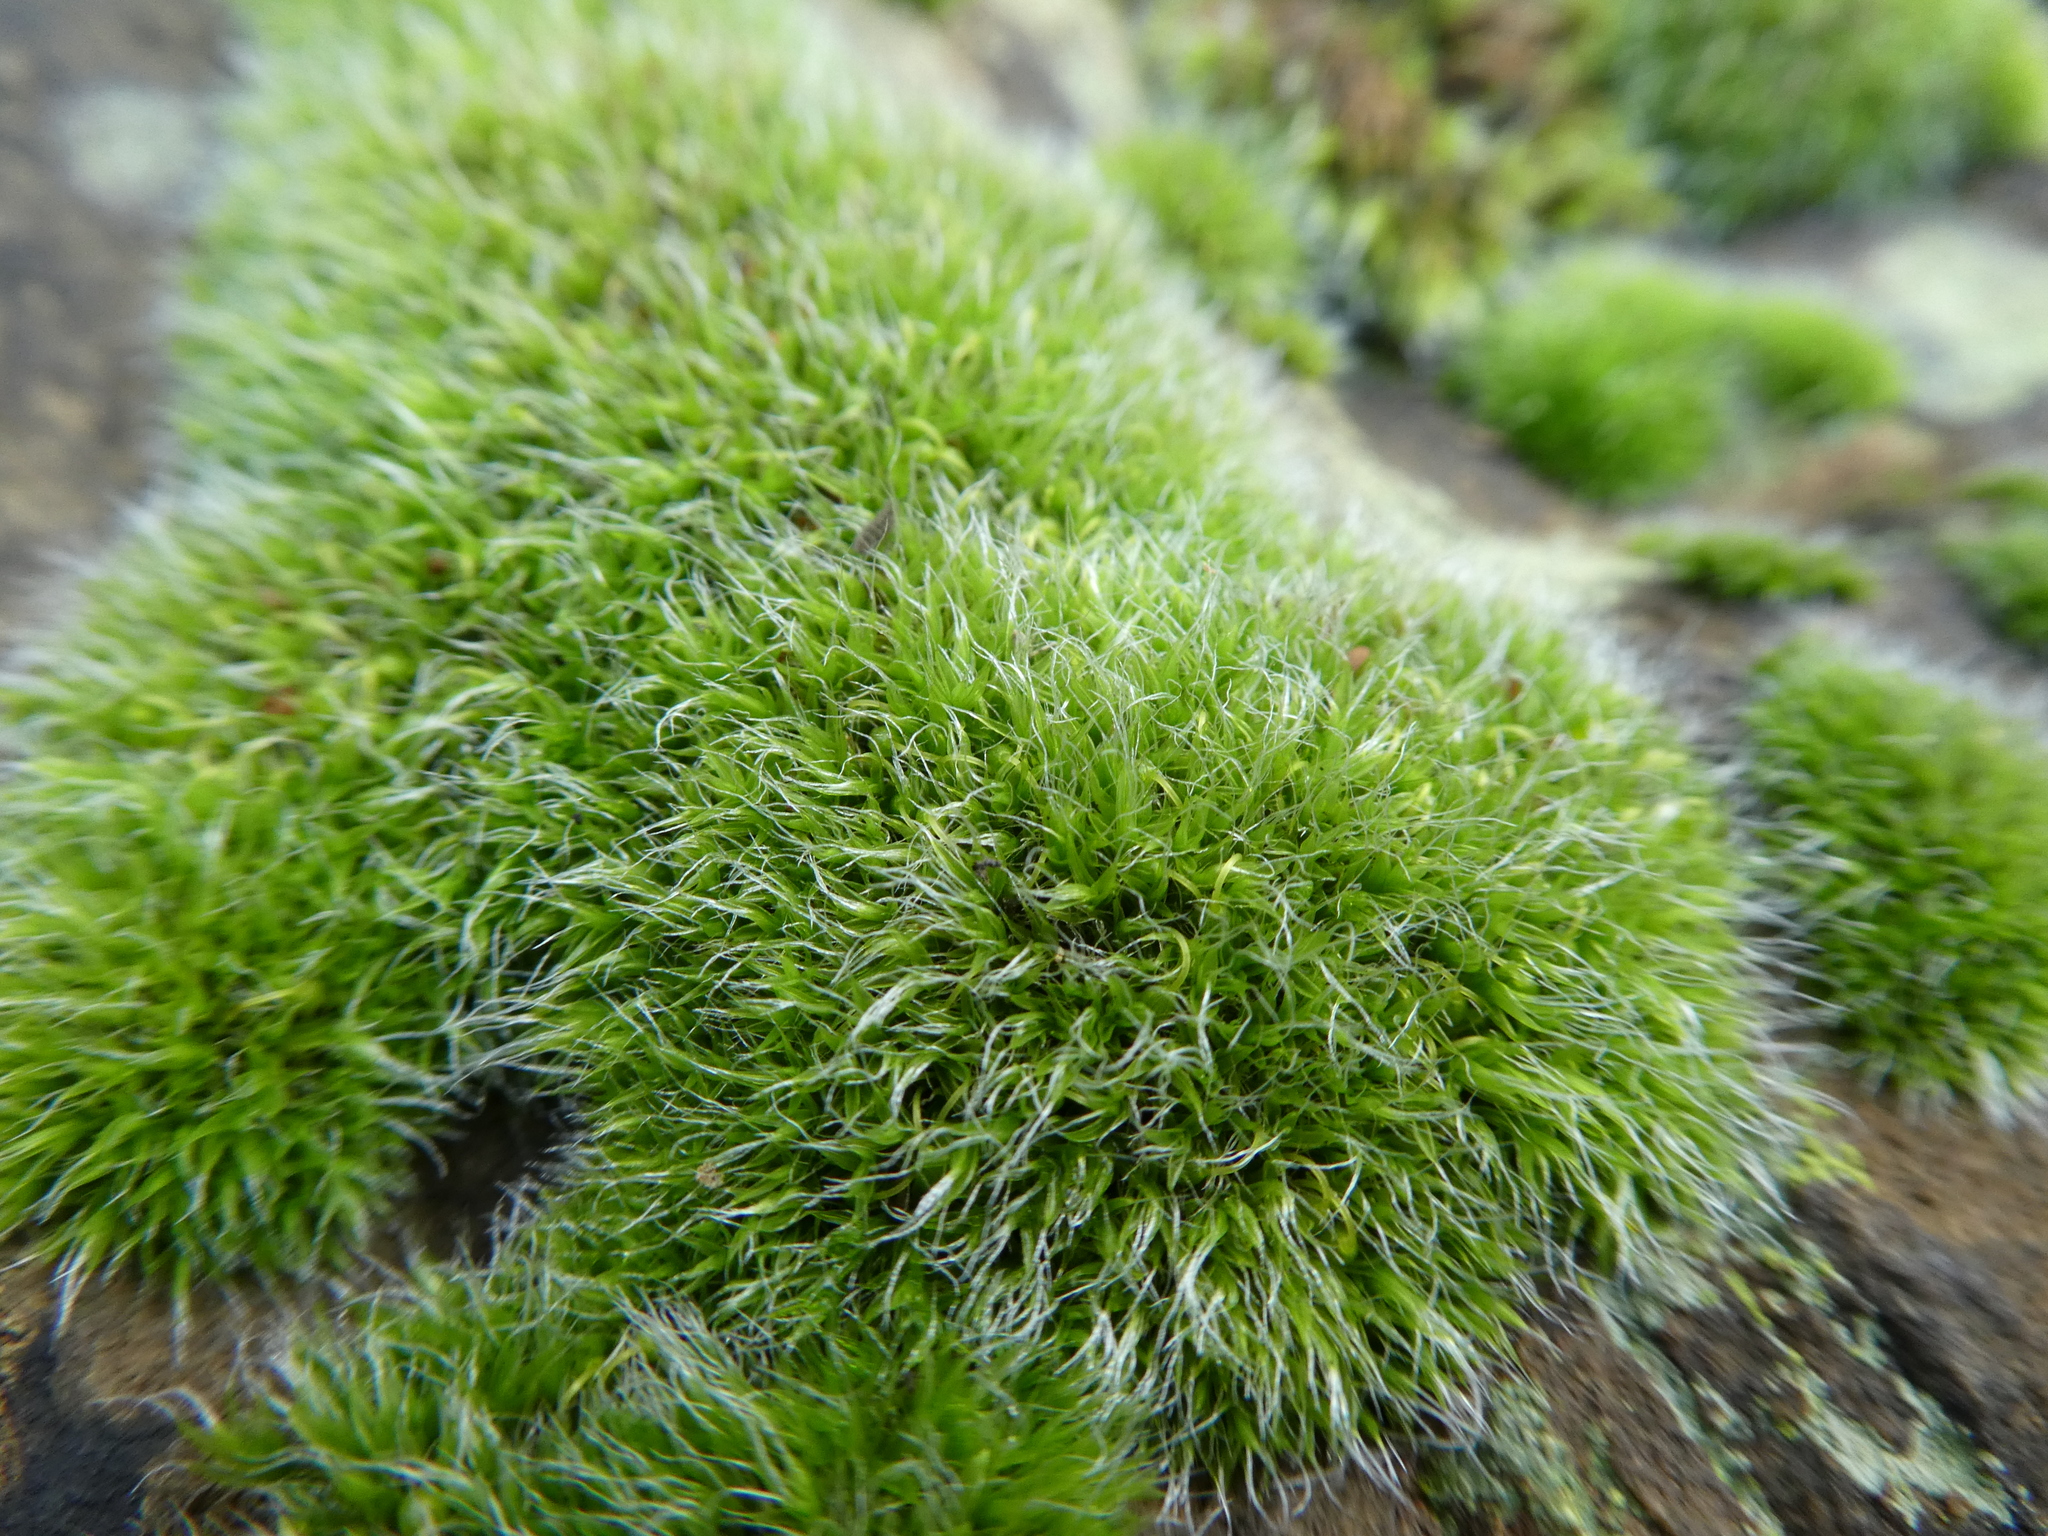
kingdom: Plantae
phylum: Bryophyta
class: Bryopsida
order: Grimmiales
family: Grimmiaceae
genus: Grimmia
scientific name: Grimmia pulvinata
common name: Grey-cushioned grimmia
